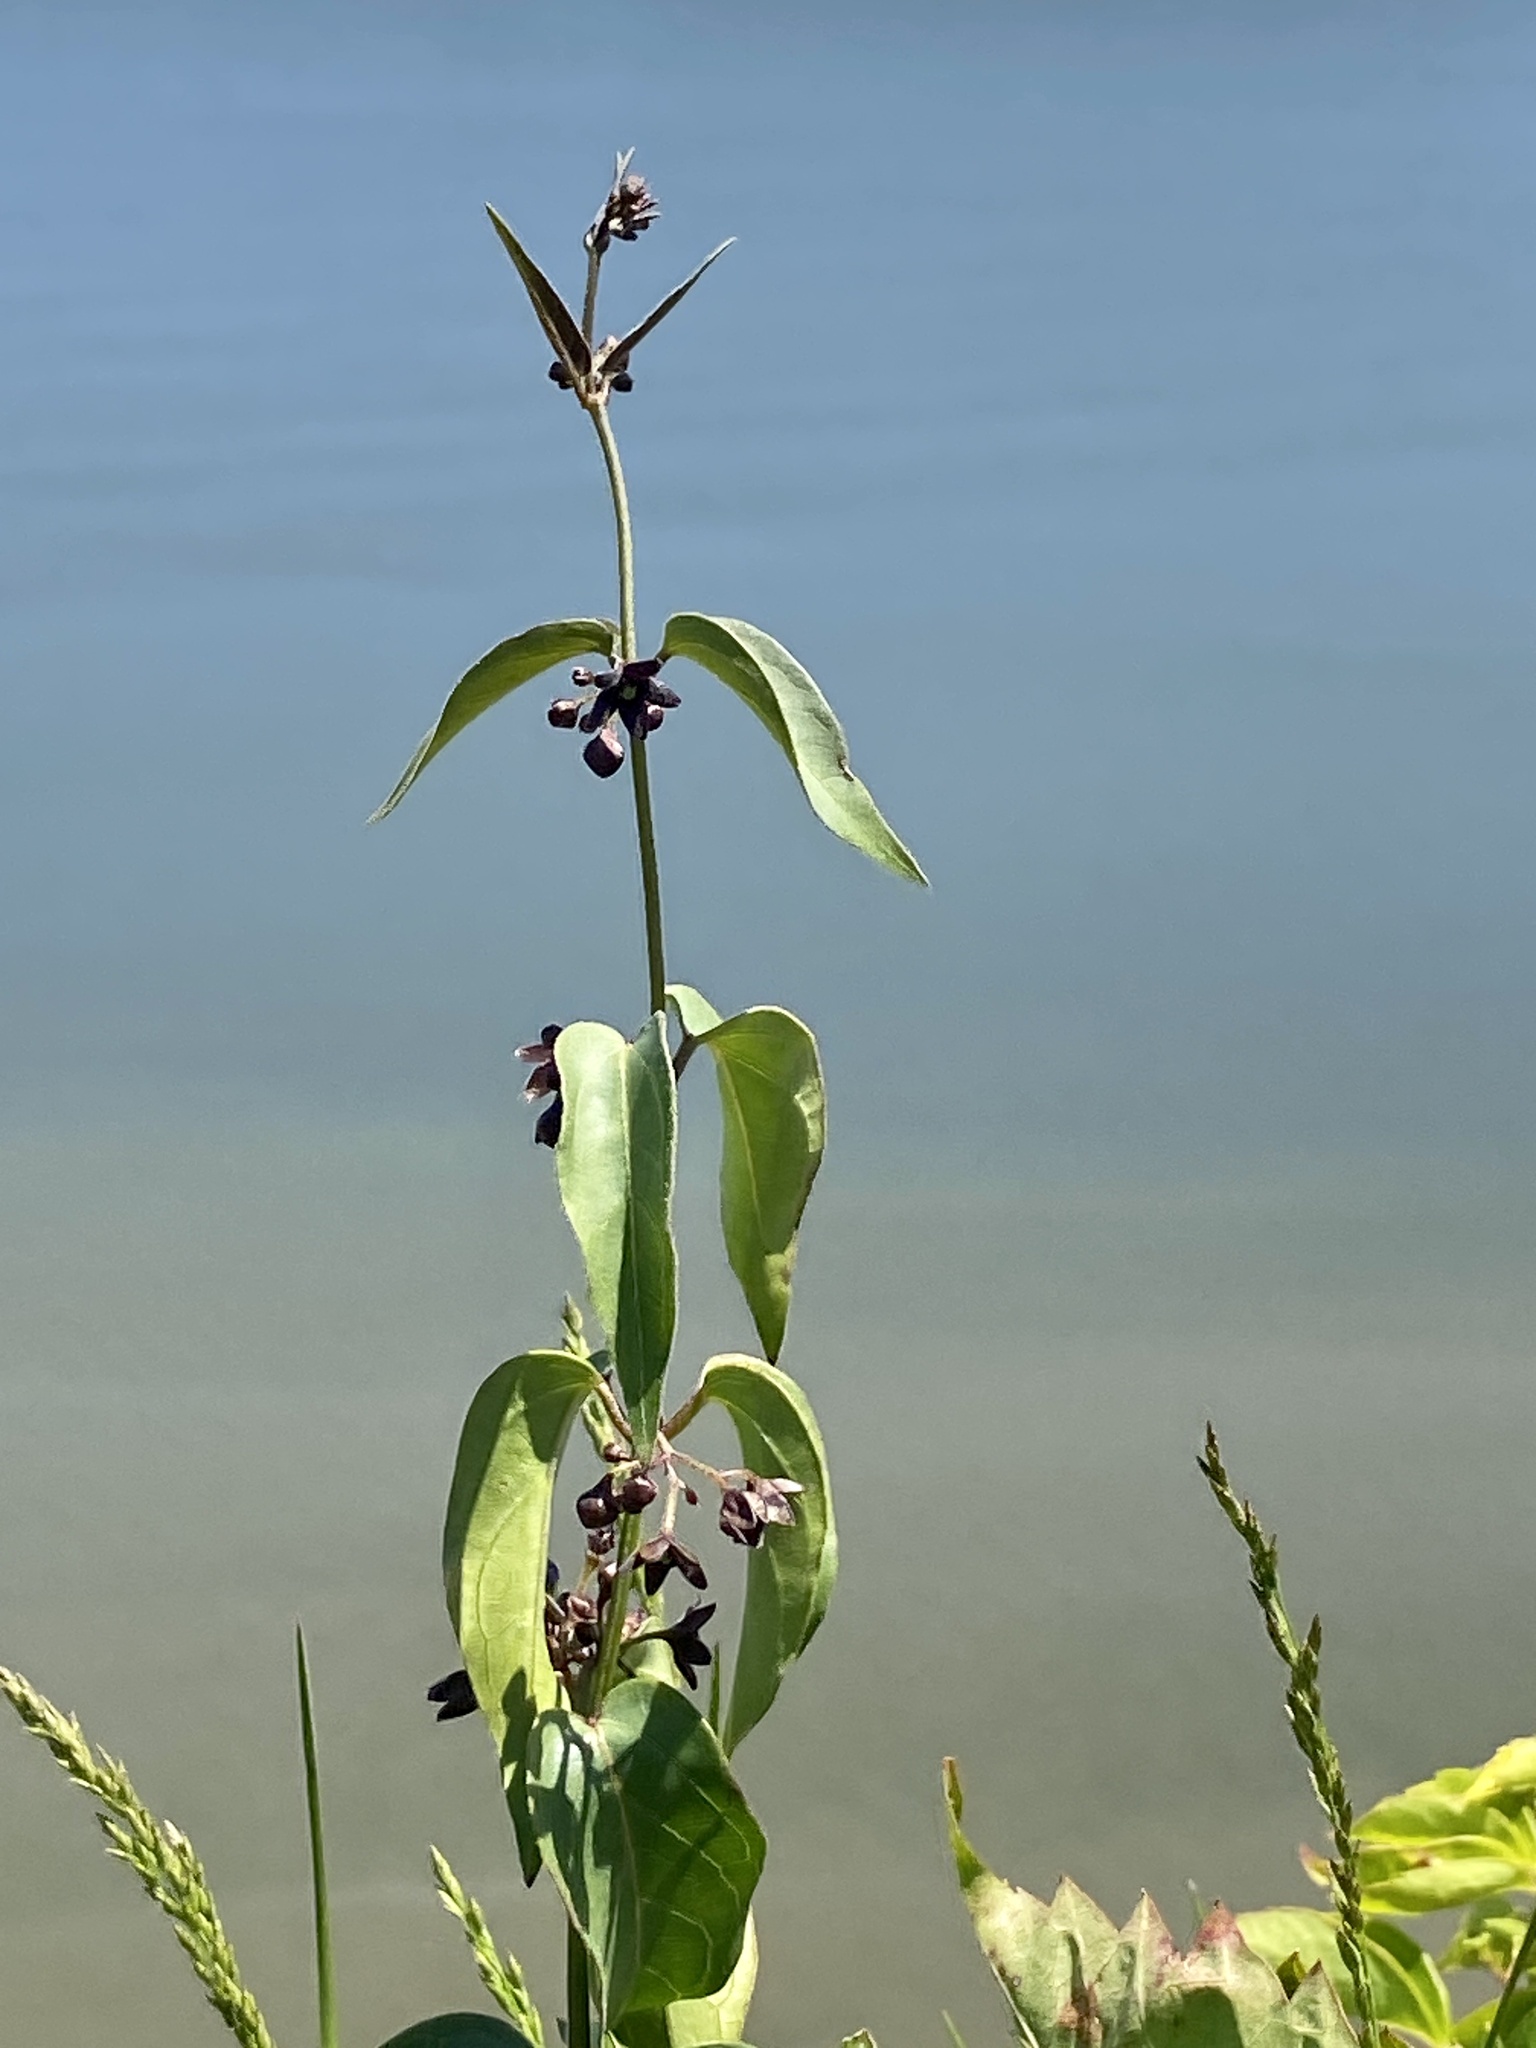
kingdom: Plantae
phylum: Tracheophyta
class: Magnoliopsida
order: Gentianales
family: Apocynaceae
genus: Vincetoxicum
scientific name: Vincetoxicum nigrum
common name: Black swallow-wort
